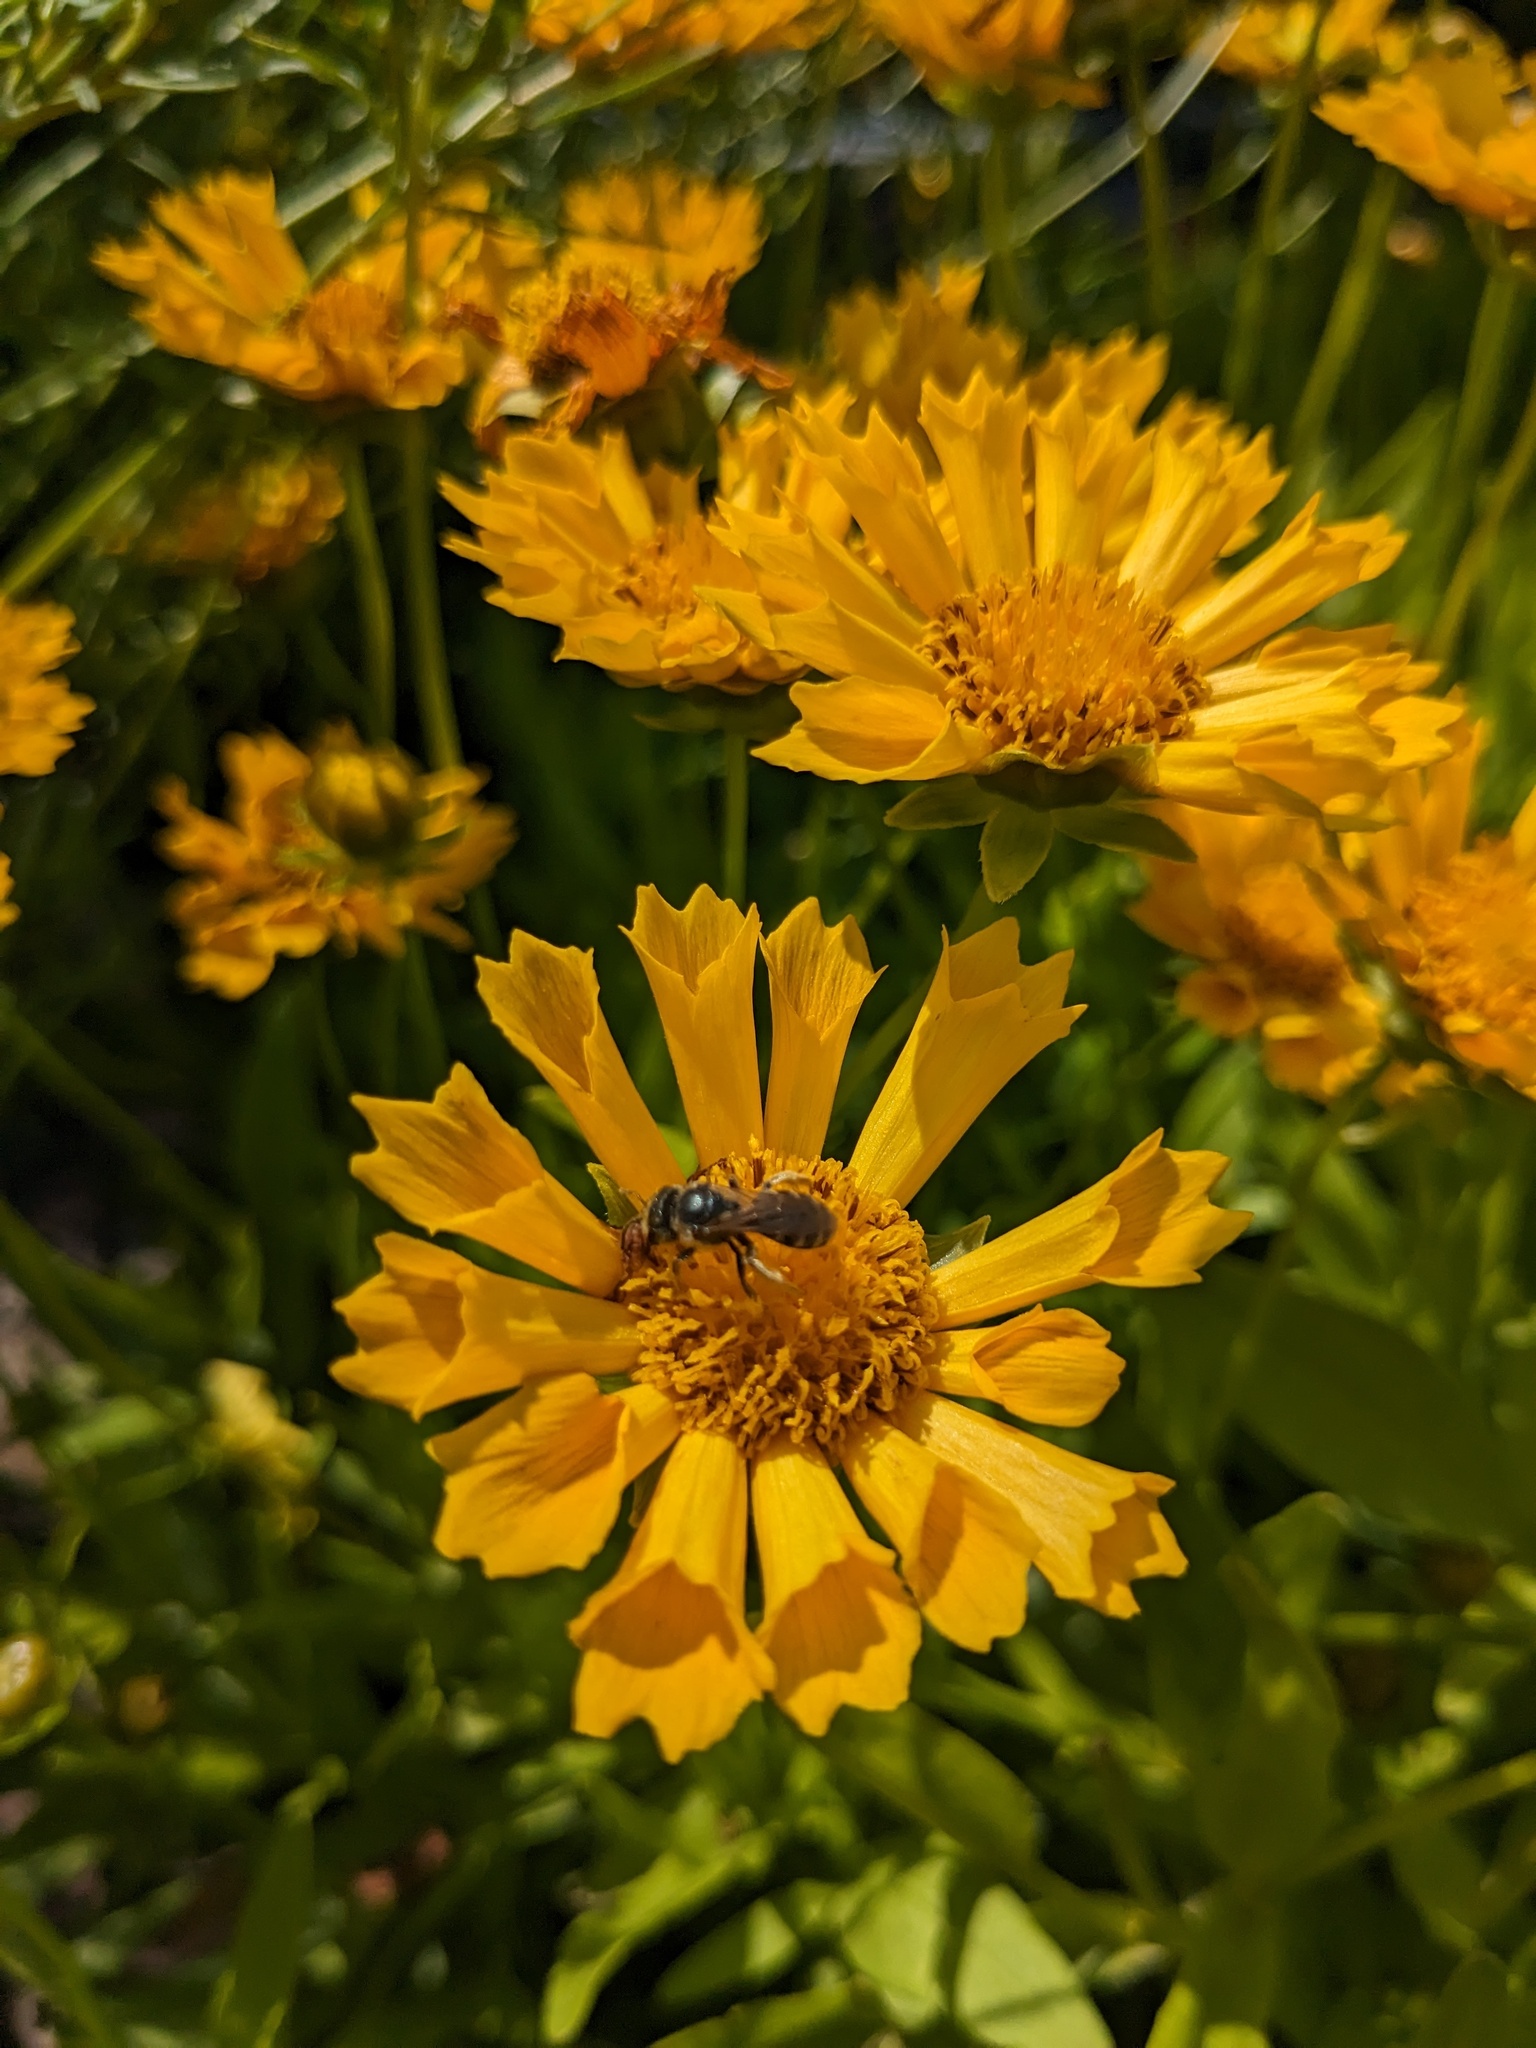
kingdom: Animalia
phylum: Arthropoda
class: Insecta
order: Hymenoptera
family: Halictidae
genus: Halictus
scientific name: Halictus ligatus
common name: Ligated furrow bee
